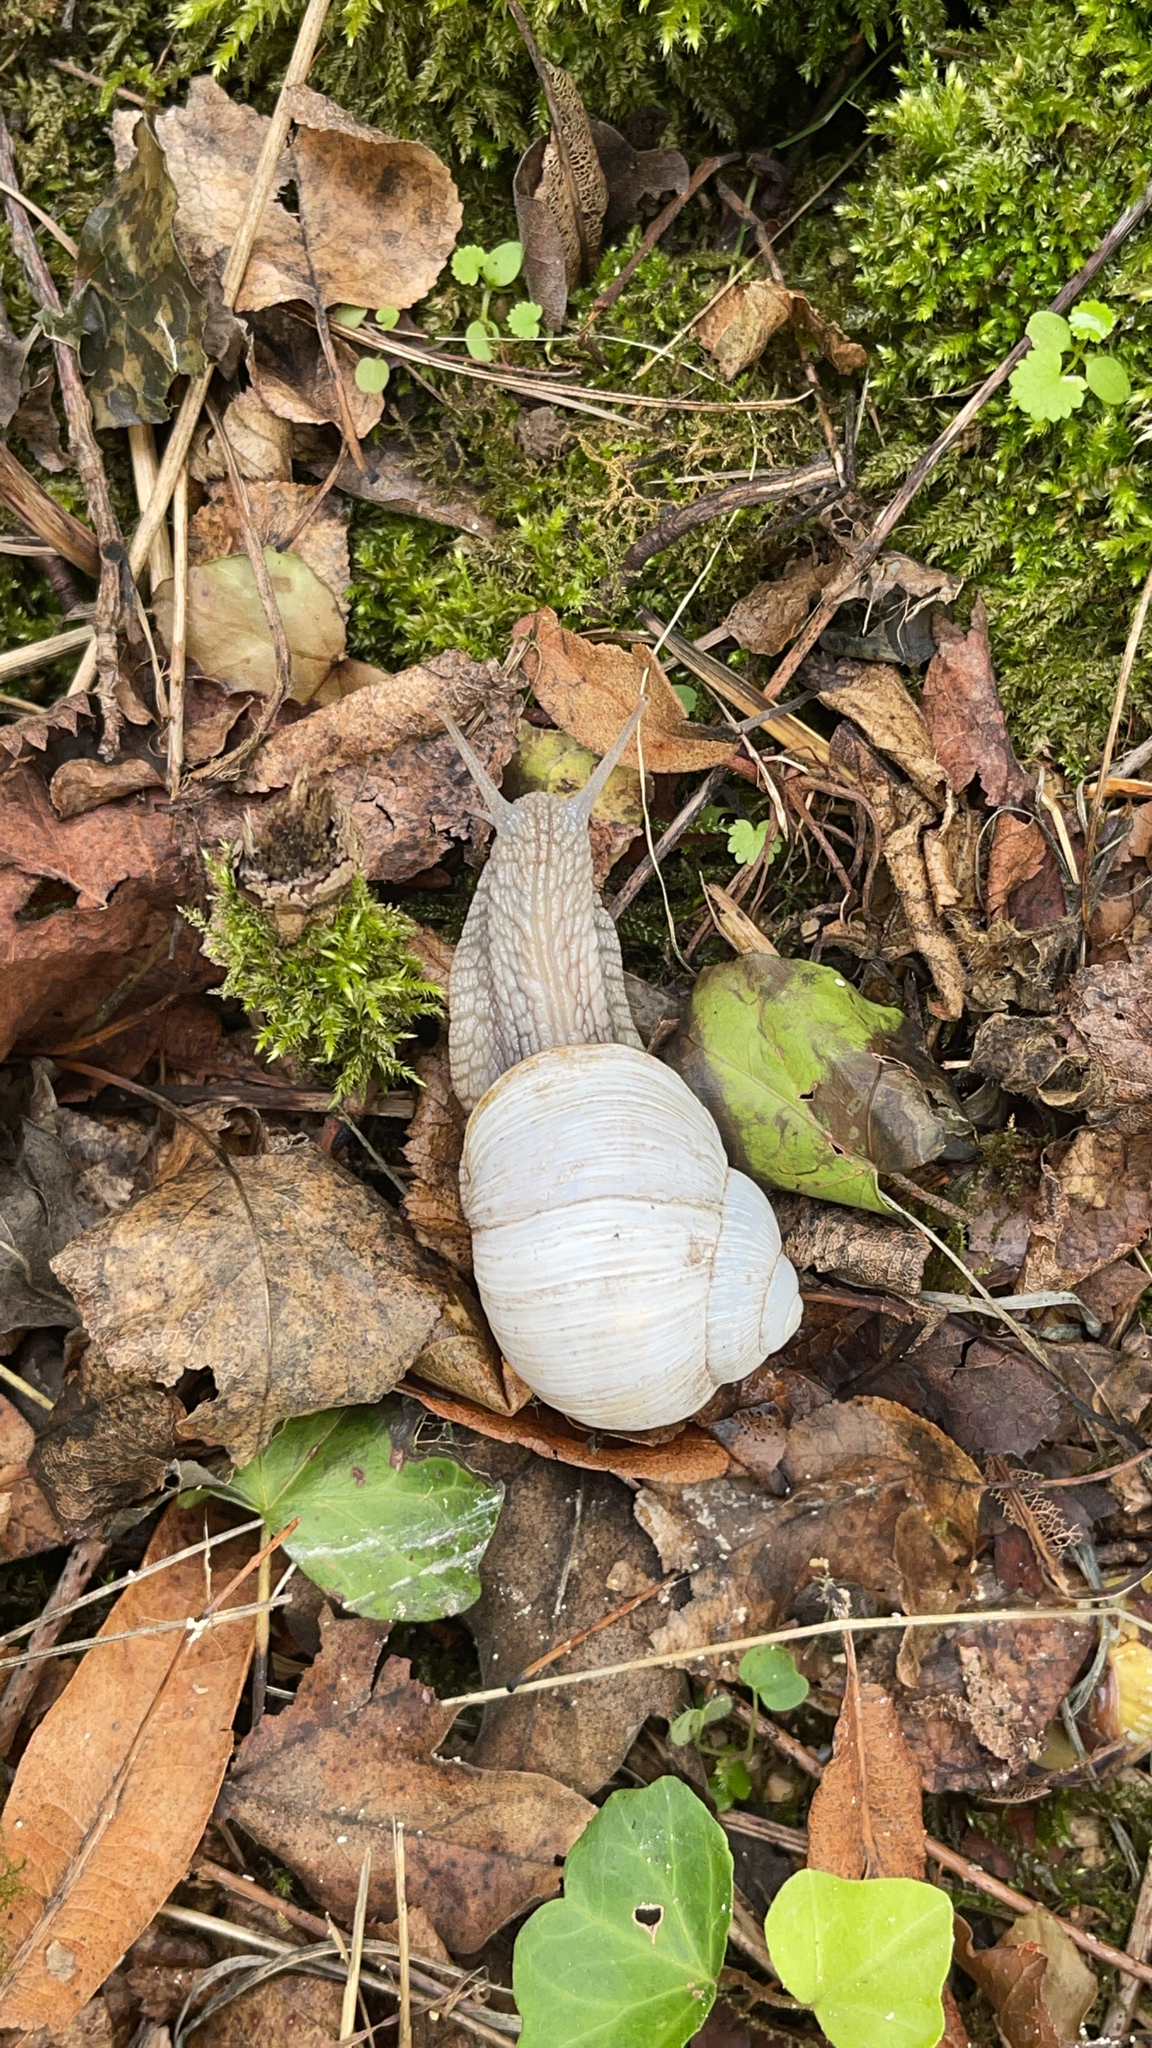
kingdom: Animalia
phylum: Mollusca
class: Gastropoda
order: Stylommatophora
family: Helicidae
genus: Helix
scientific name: Helix pomatia
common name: Roman snail
